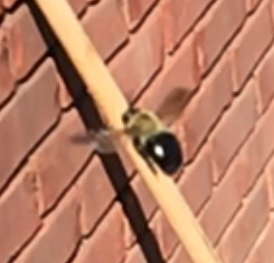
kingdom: Animalia
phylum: Arthropoda
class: Insecta
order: Hymenoptera
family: Apidae
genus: Xylocopa
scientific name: Xylocopa virginica
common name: Carpenter bee
